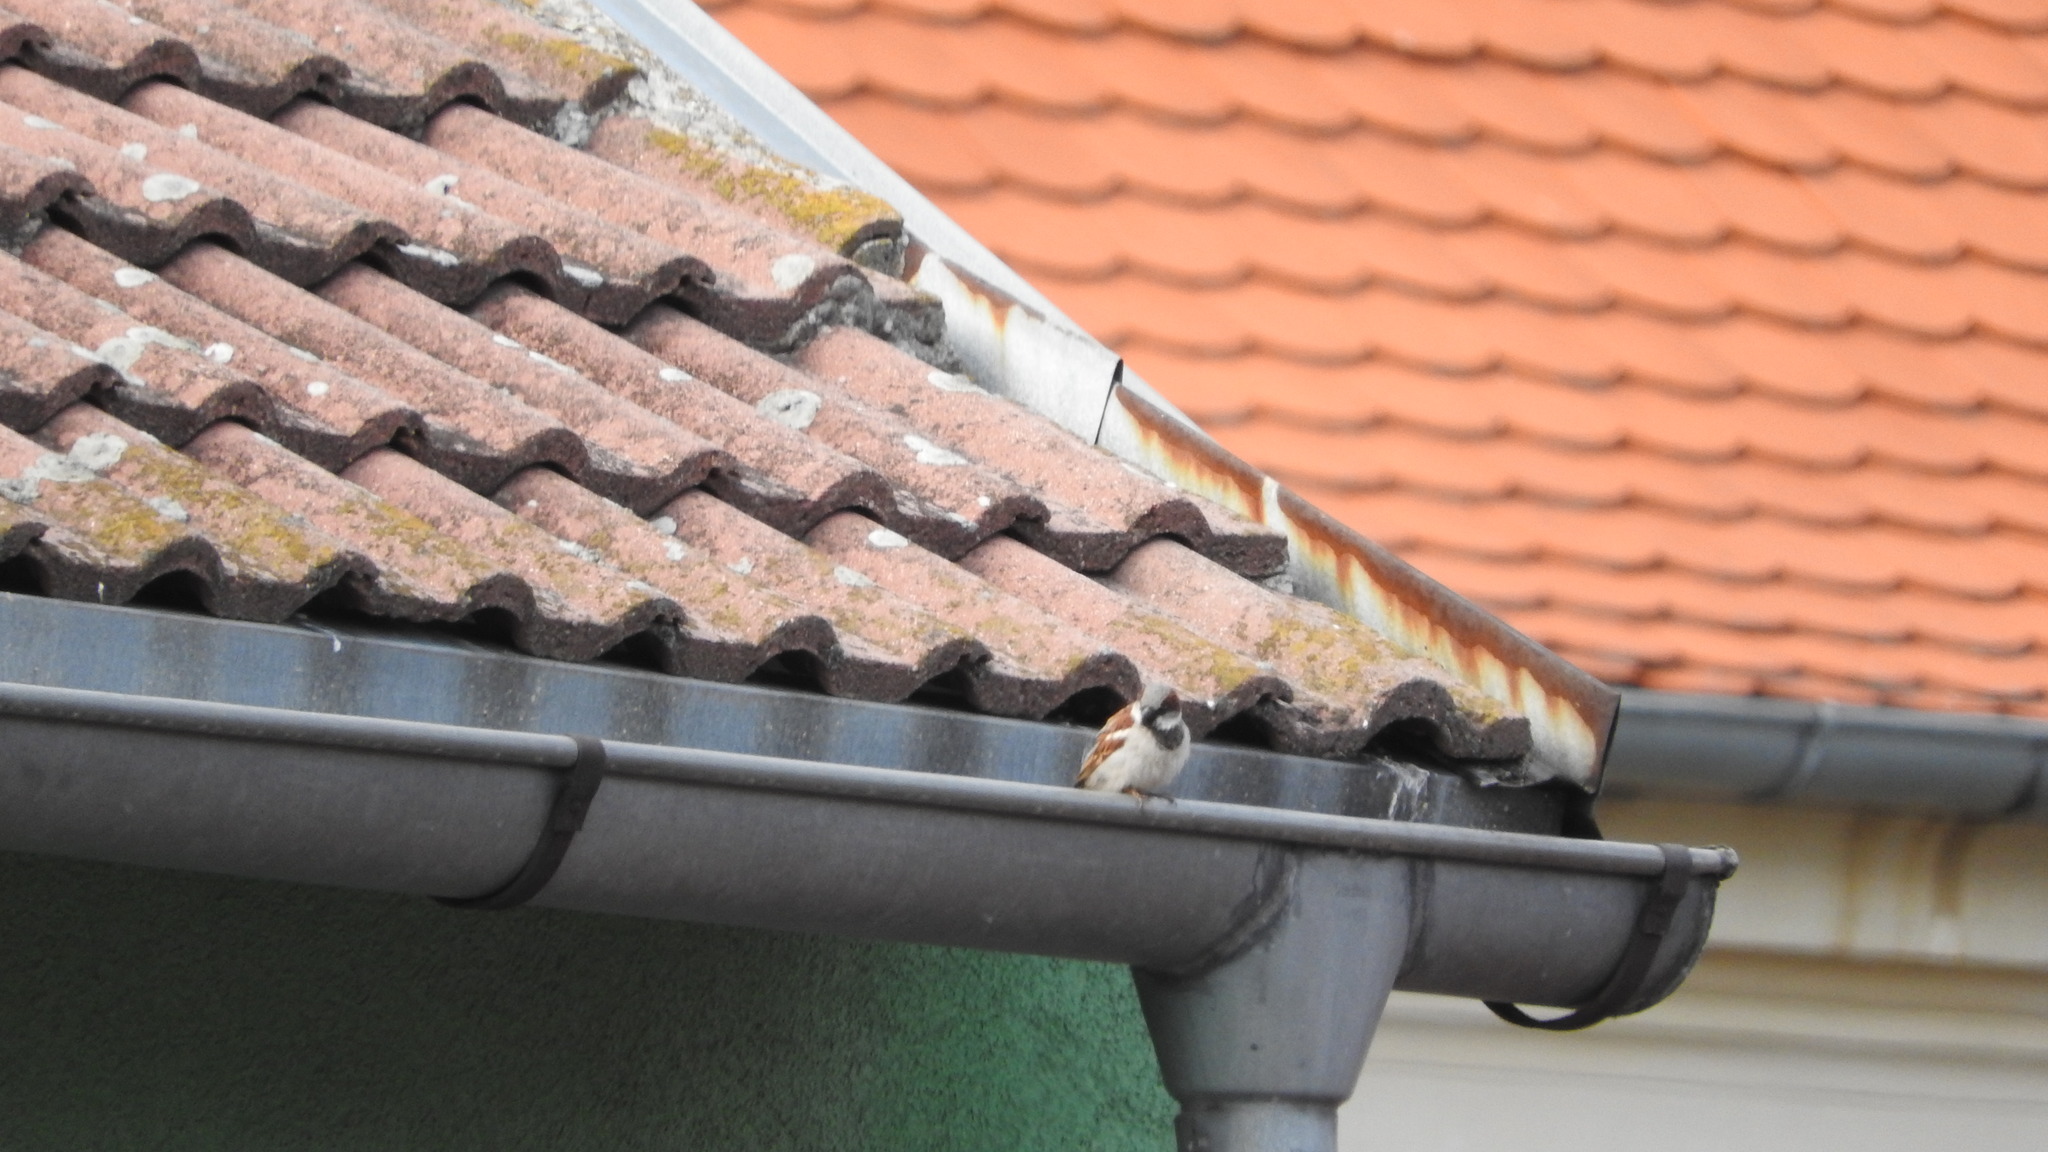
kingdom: Animalia
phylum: Chordata
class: Aves
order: Passeriformes
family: Passeridae
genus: Passer
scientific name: Passer domesticus
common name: House sparrow
